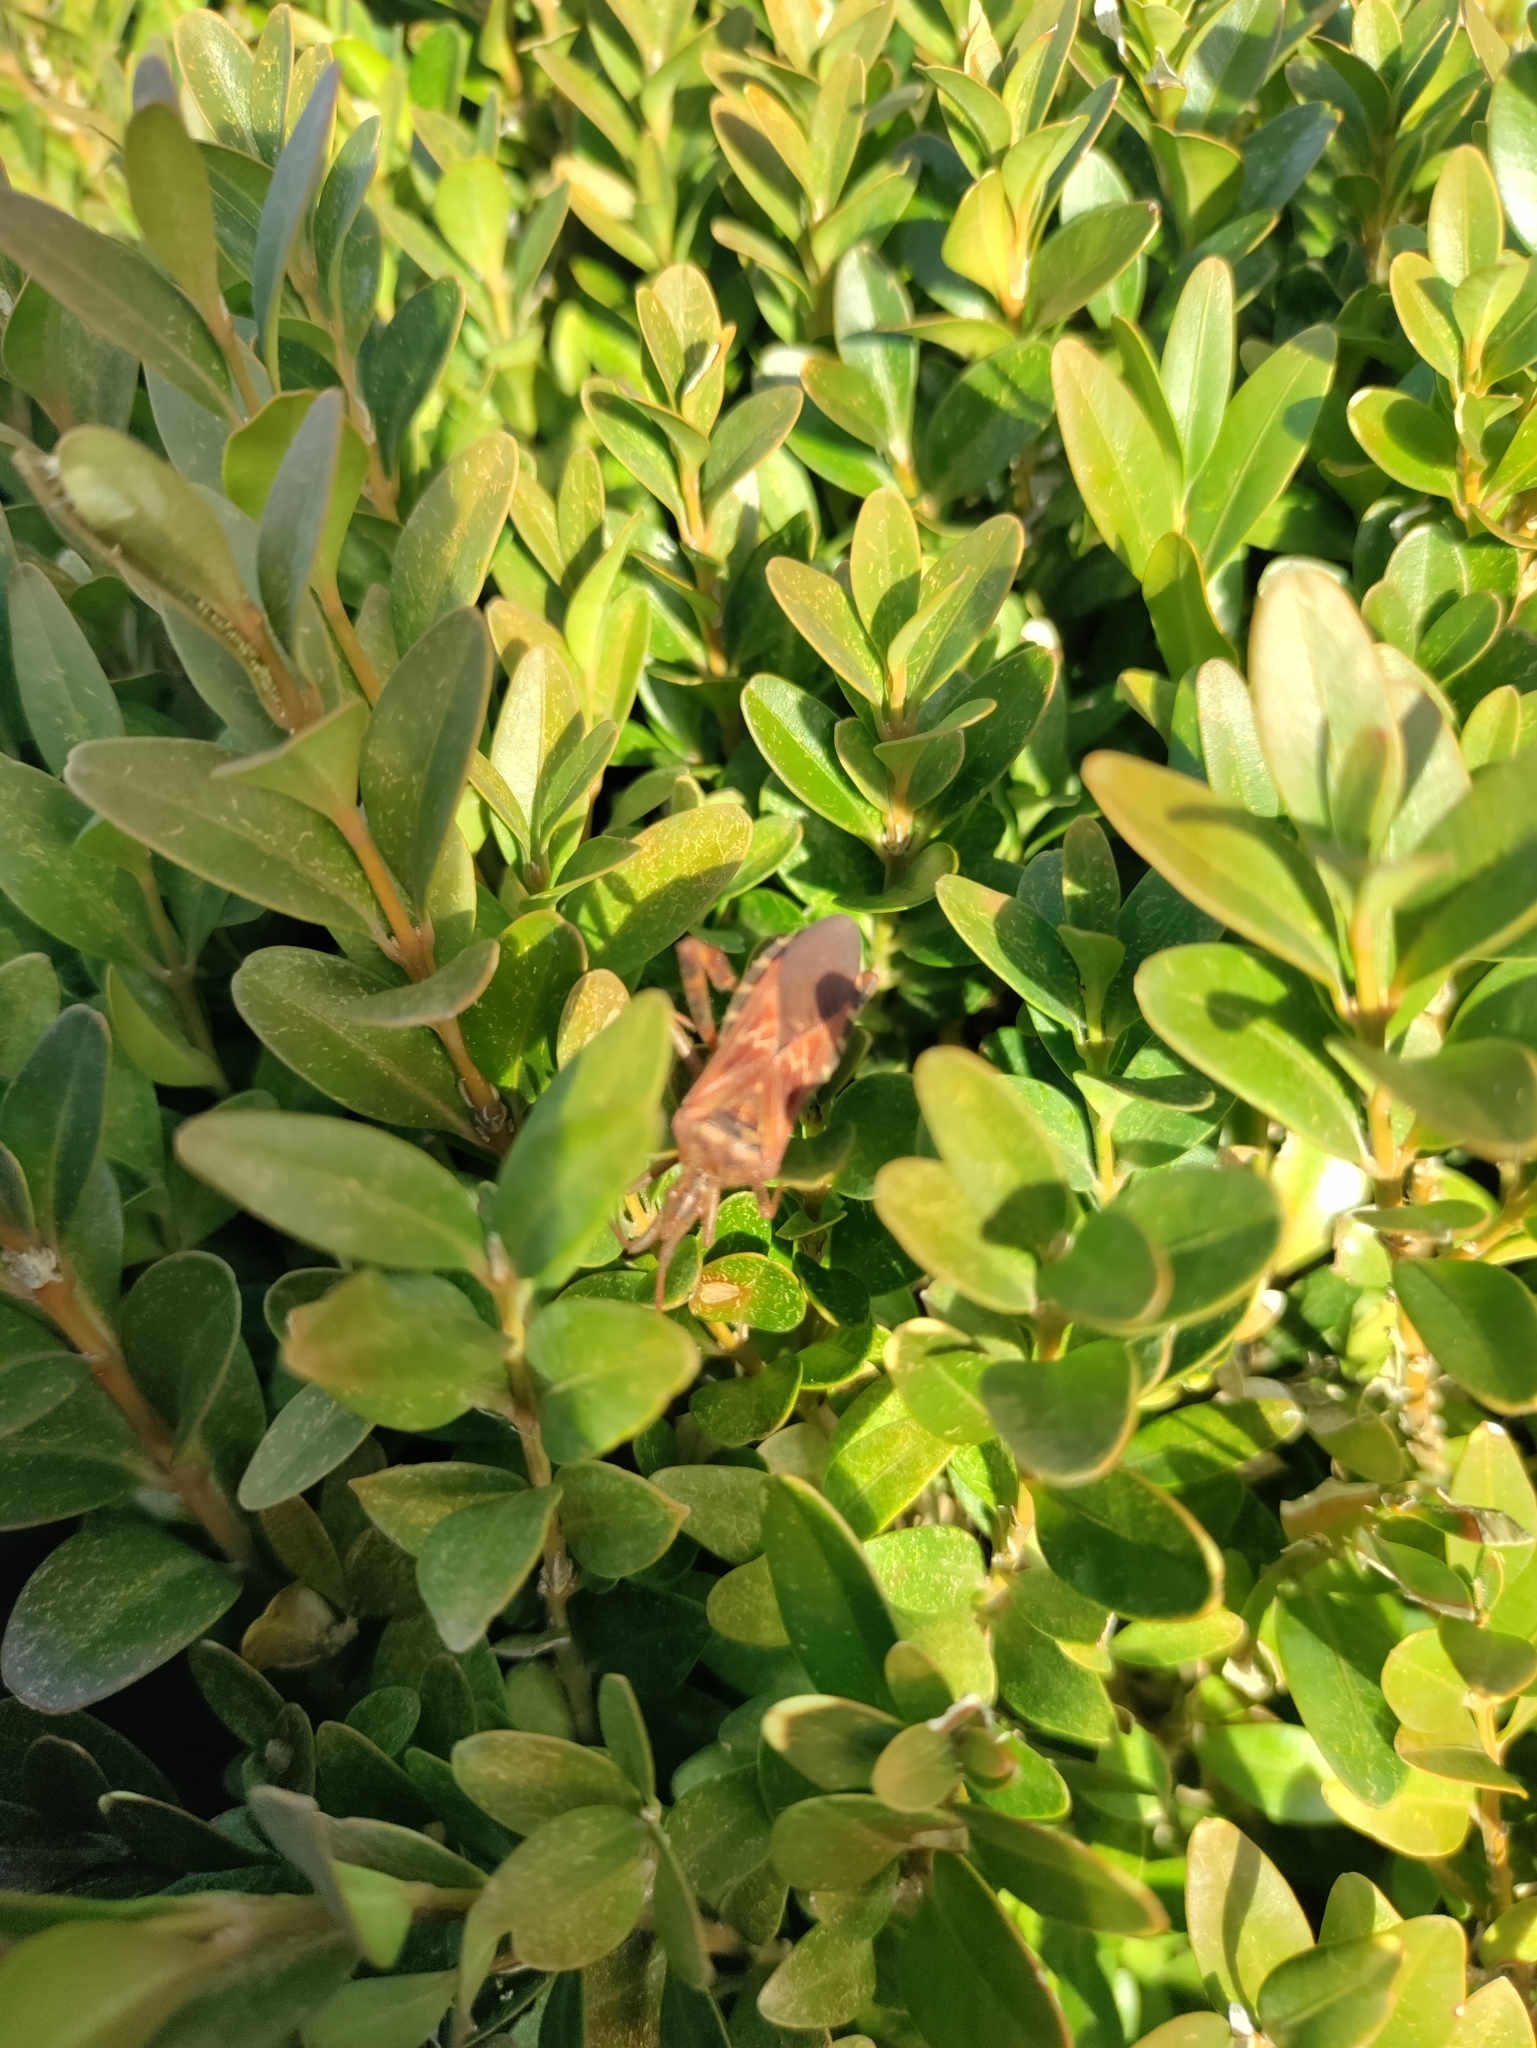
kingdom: Animalia
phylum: Arthropoda
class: Insecta
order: Hemiptera
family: Coreidae
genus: Leptoglossus
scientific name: Leptoglossus occidentalis
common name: Western conifer-seed bug
